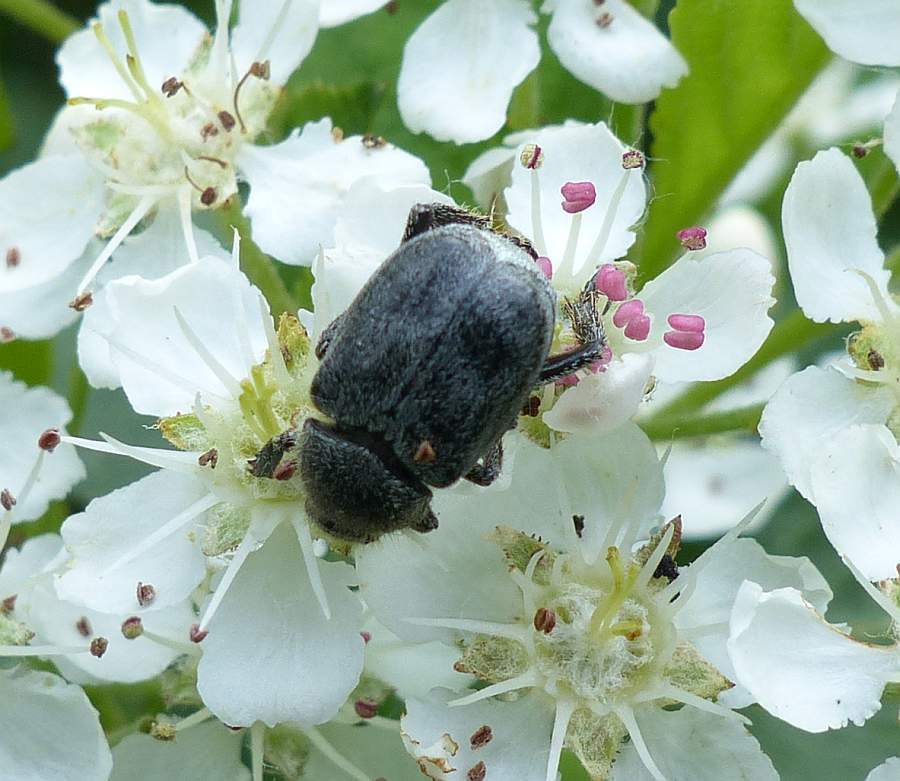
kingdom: Animalia
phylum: Arthropoda
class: Insecta
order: Coleoptera
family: Scarabaeidae
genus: Hoplia
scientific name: Hoplia trifasciata
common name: Three-lined hoplia
